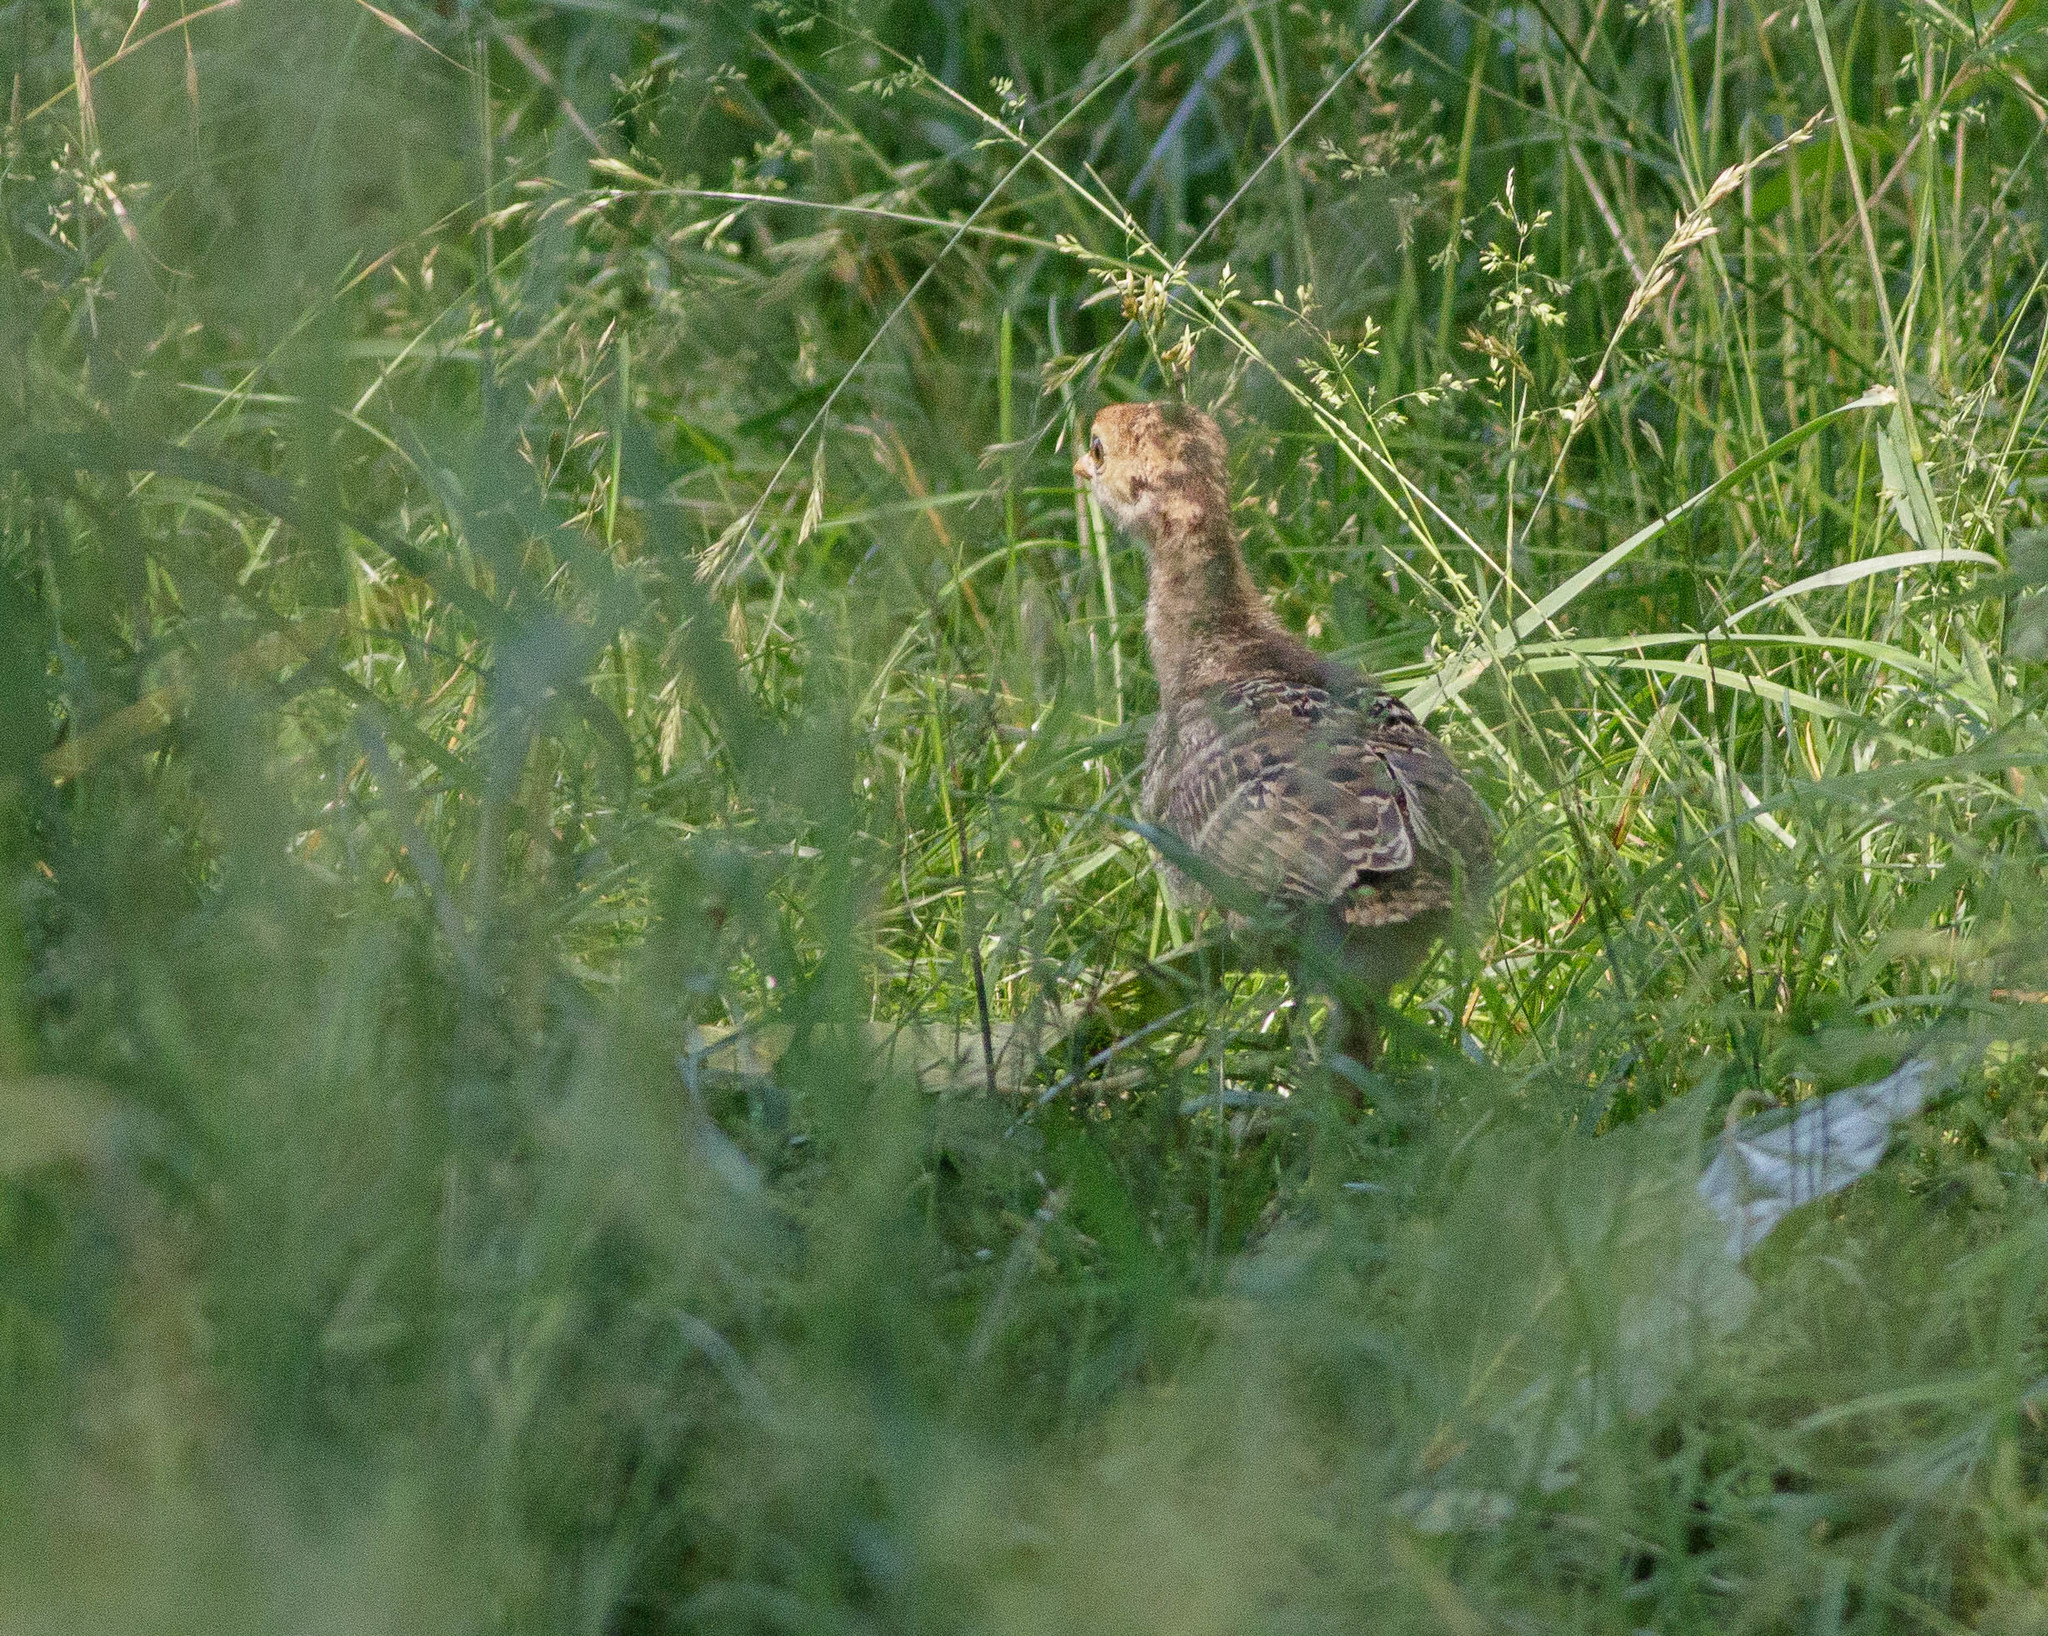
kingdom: Animalia
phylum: Chordata
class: Aves
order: Galliformes
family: Phasianidae
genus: Meleagris
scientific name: Meleagris gallopavo
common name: Wild turkey
